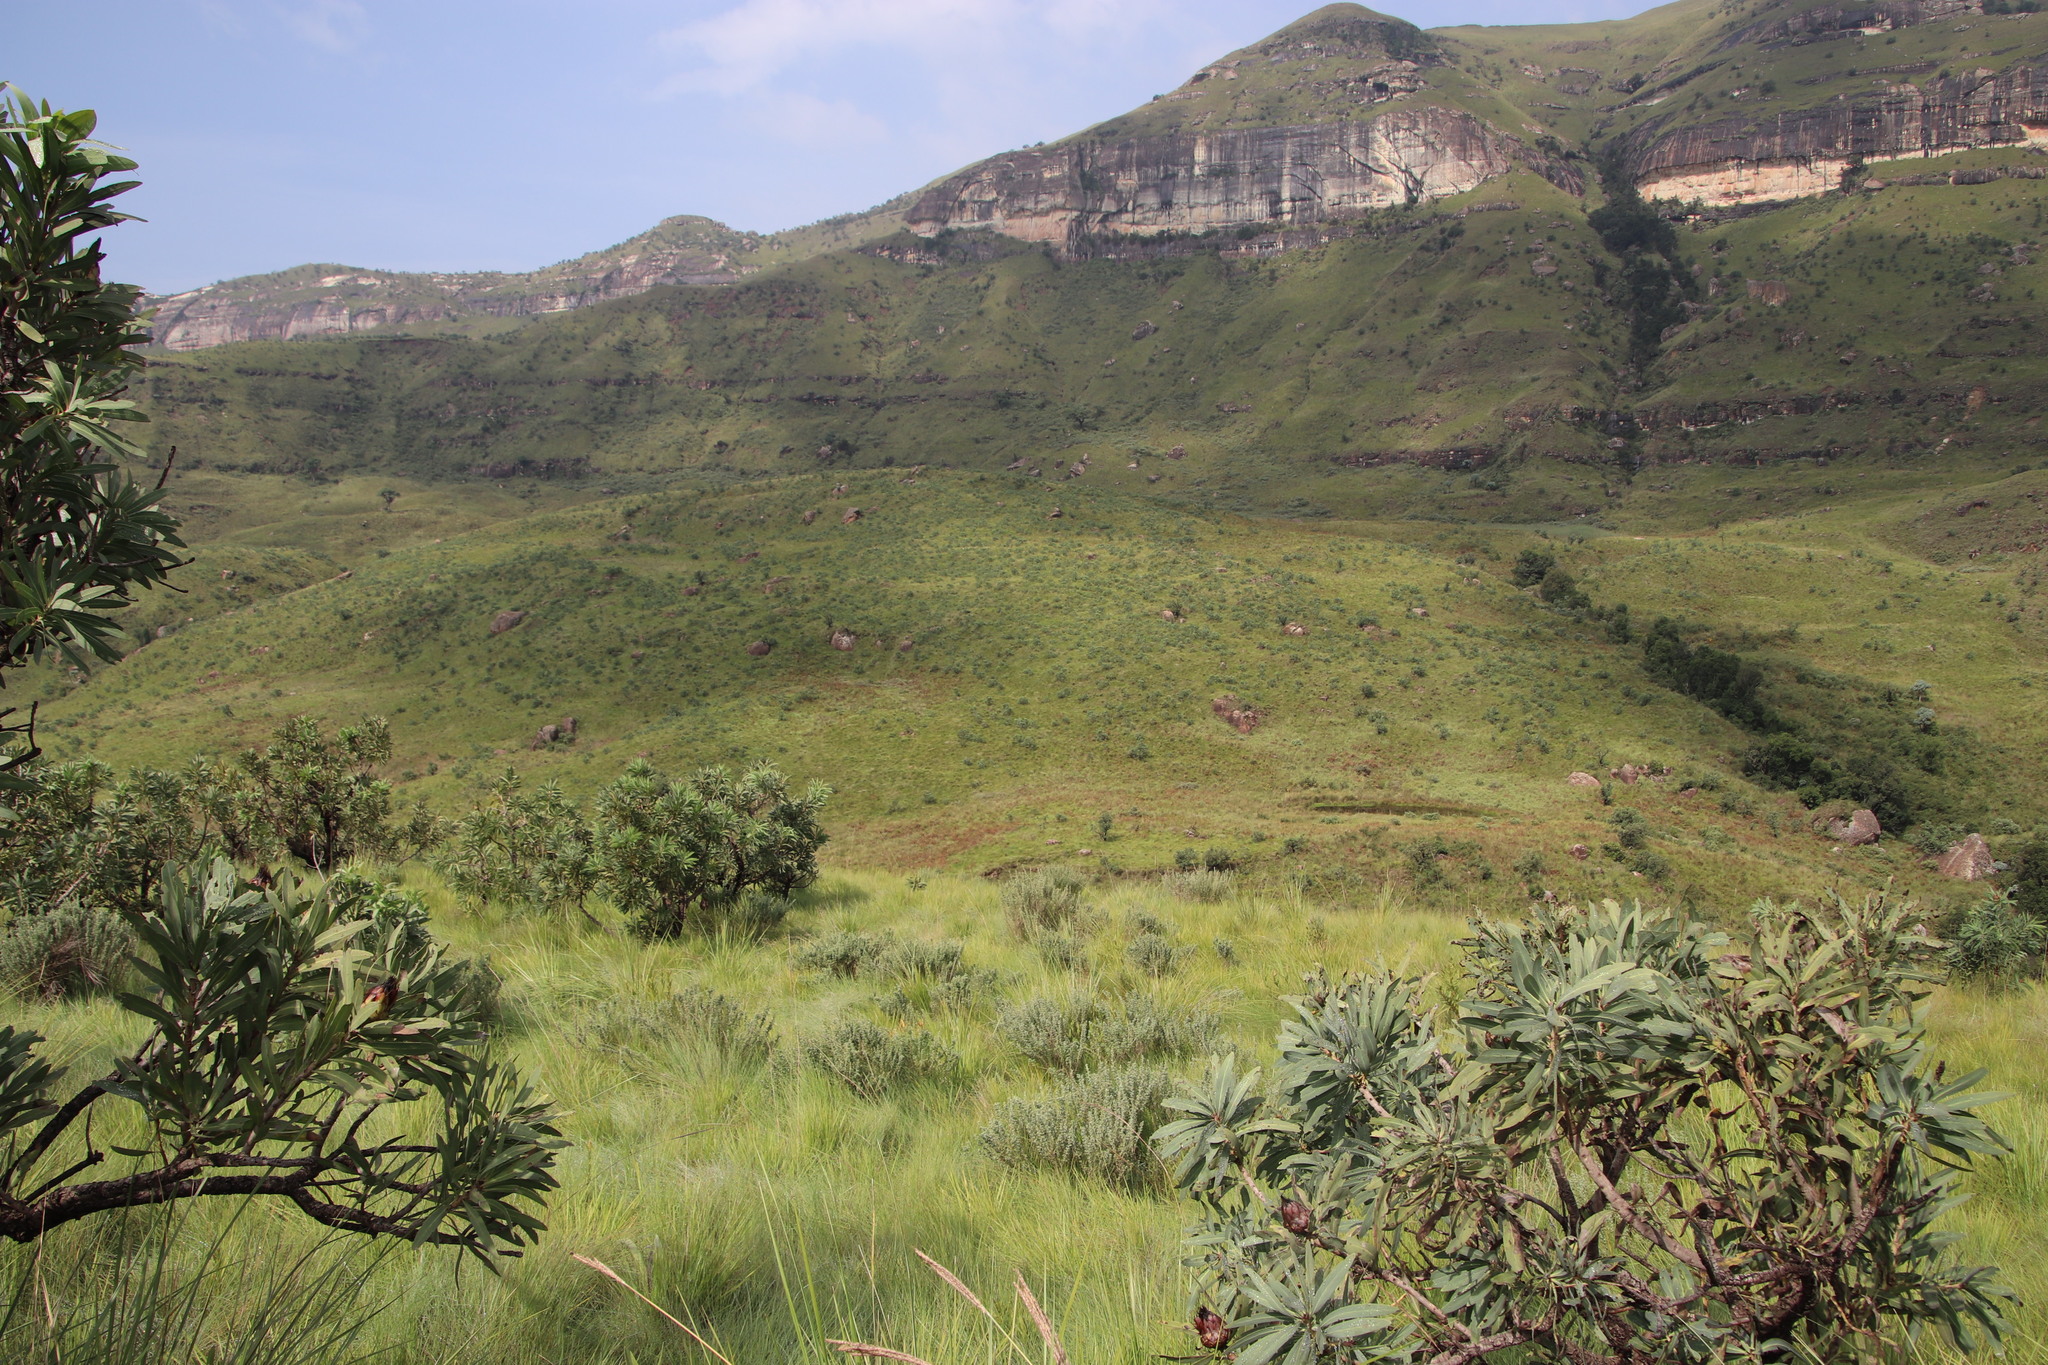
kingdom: Plantae
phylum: Tracheophyta
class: Magnoliopsida
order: Fabales
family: Fabaceae
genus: Lotononis
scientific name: Lotononis lotononoides
